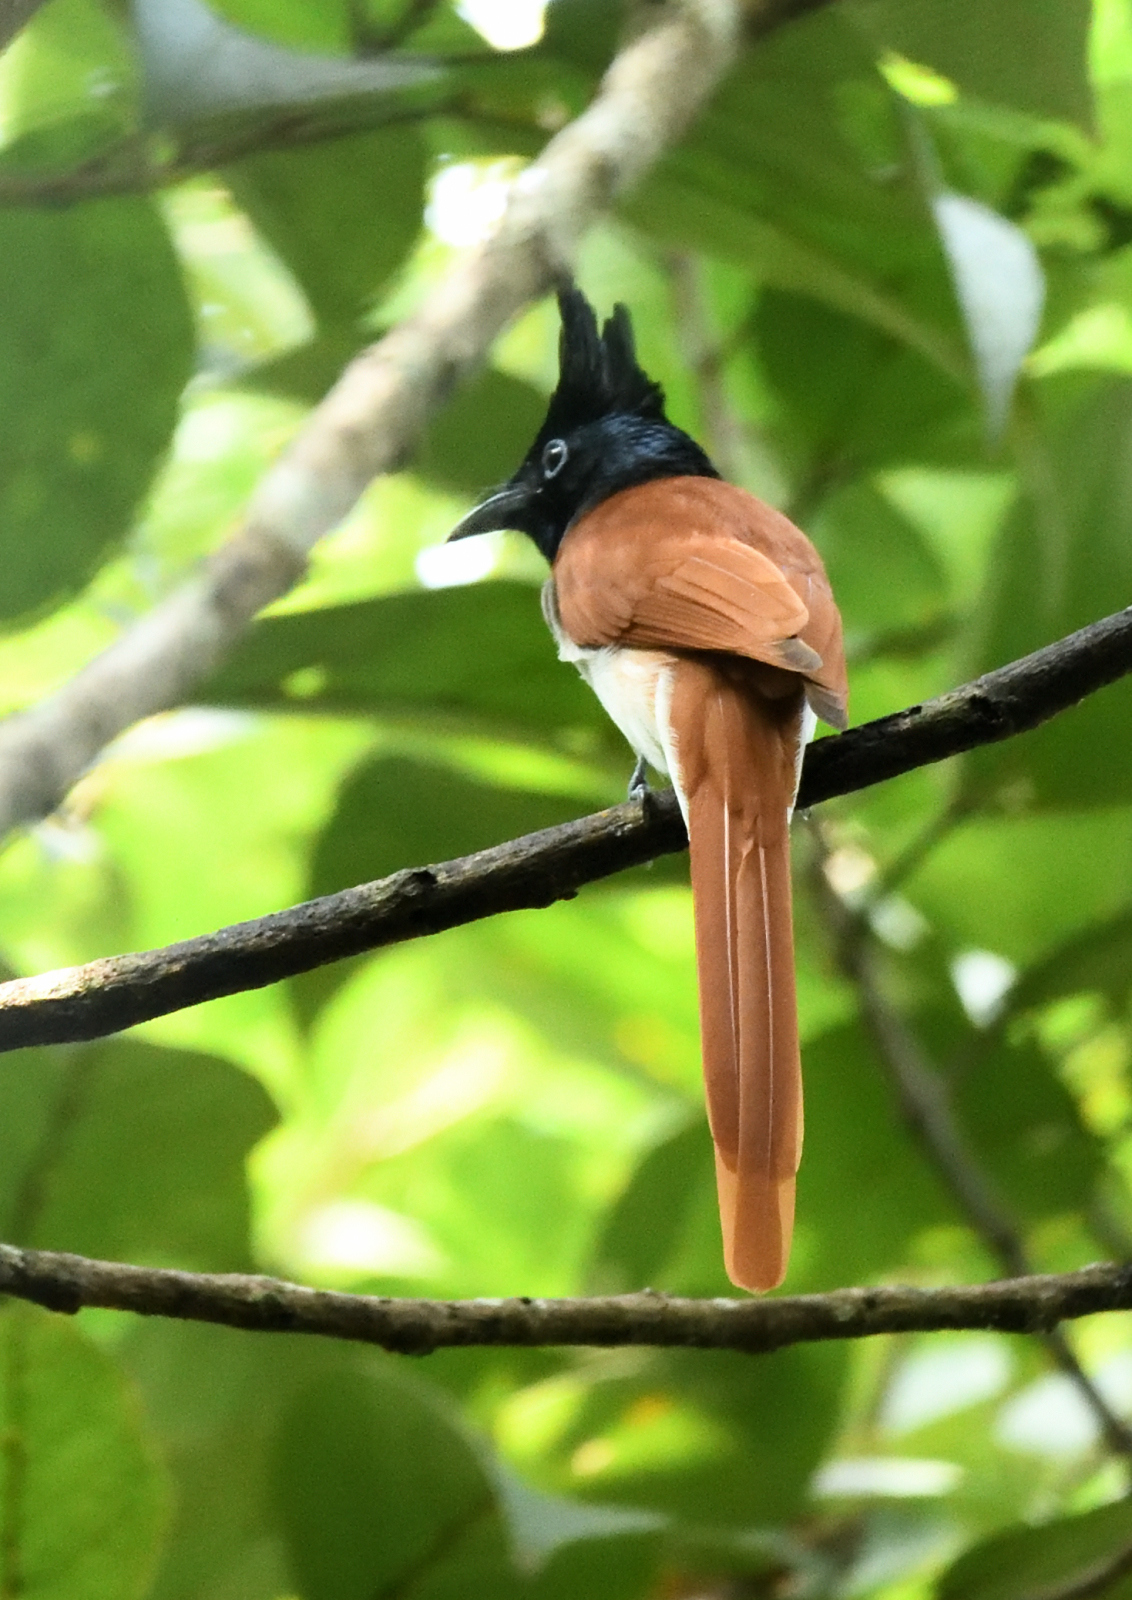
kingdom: Animalia
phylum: Chordata
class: Aves
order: Passeriformes
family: Monarchidae
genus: Terpsiphone
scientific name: Terpsiphone paradisi
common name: Indian paradise flycatcher
